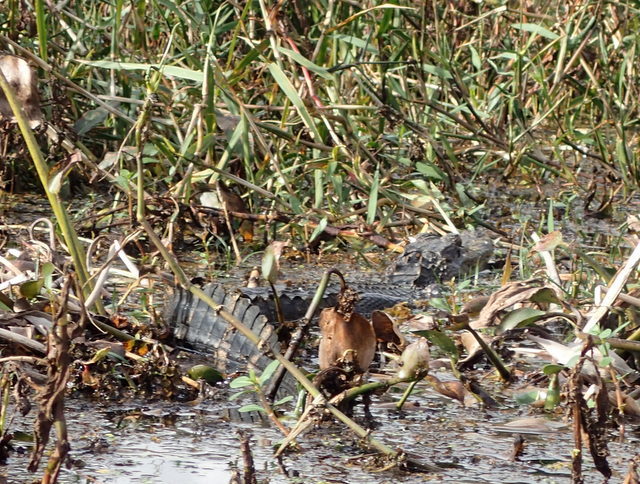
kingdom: Animalia
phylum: Chordata
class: Crocodylia
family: Alligatoridae
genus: Alligator
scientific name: Alligator mississippiensis
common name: American alligator
